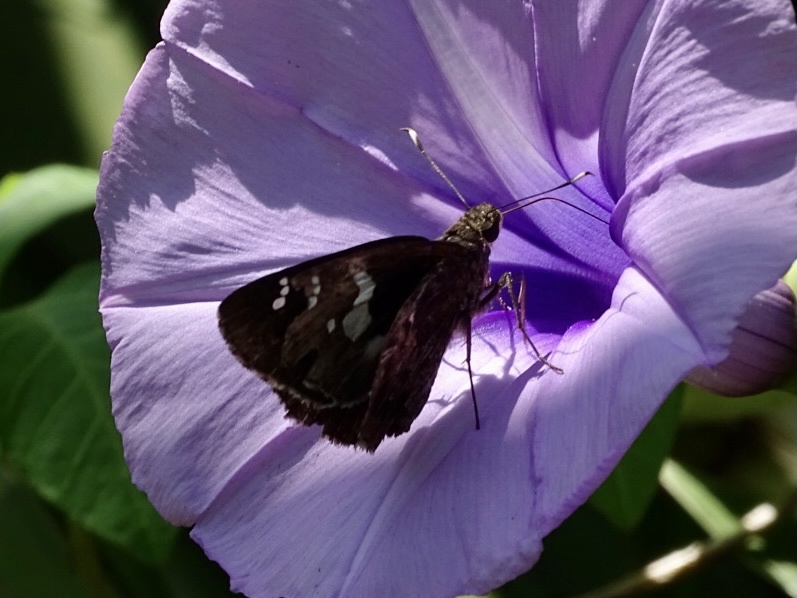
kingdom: Animalia
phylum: Arthropoda
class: Insecta
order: Lepidoptera
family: Hesperiidae
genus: Hyarotis
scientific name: Hyarotis adrastus
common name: Tree flitter
